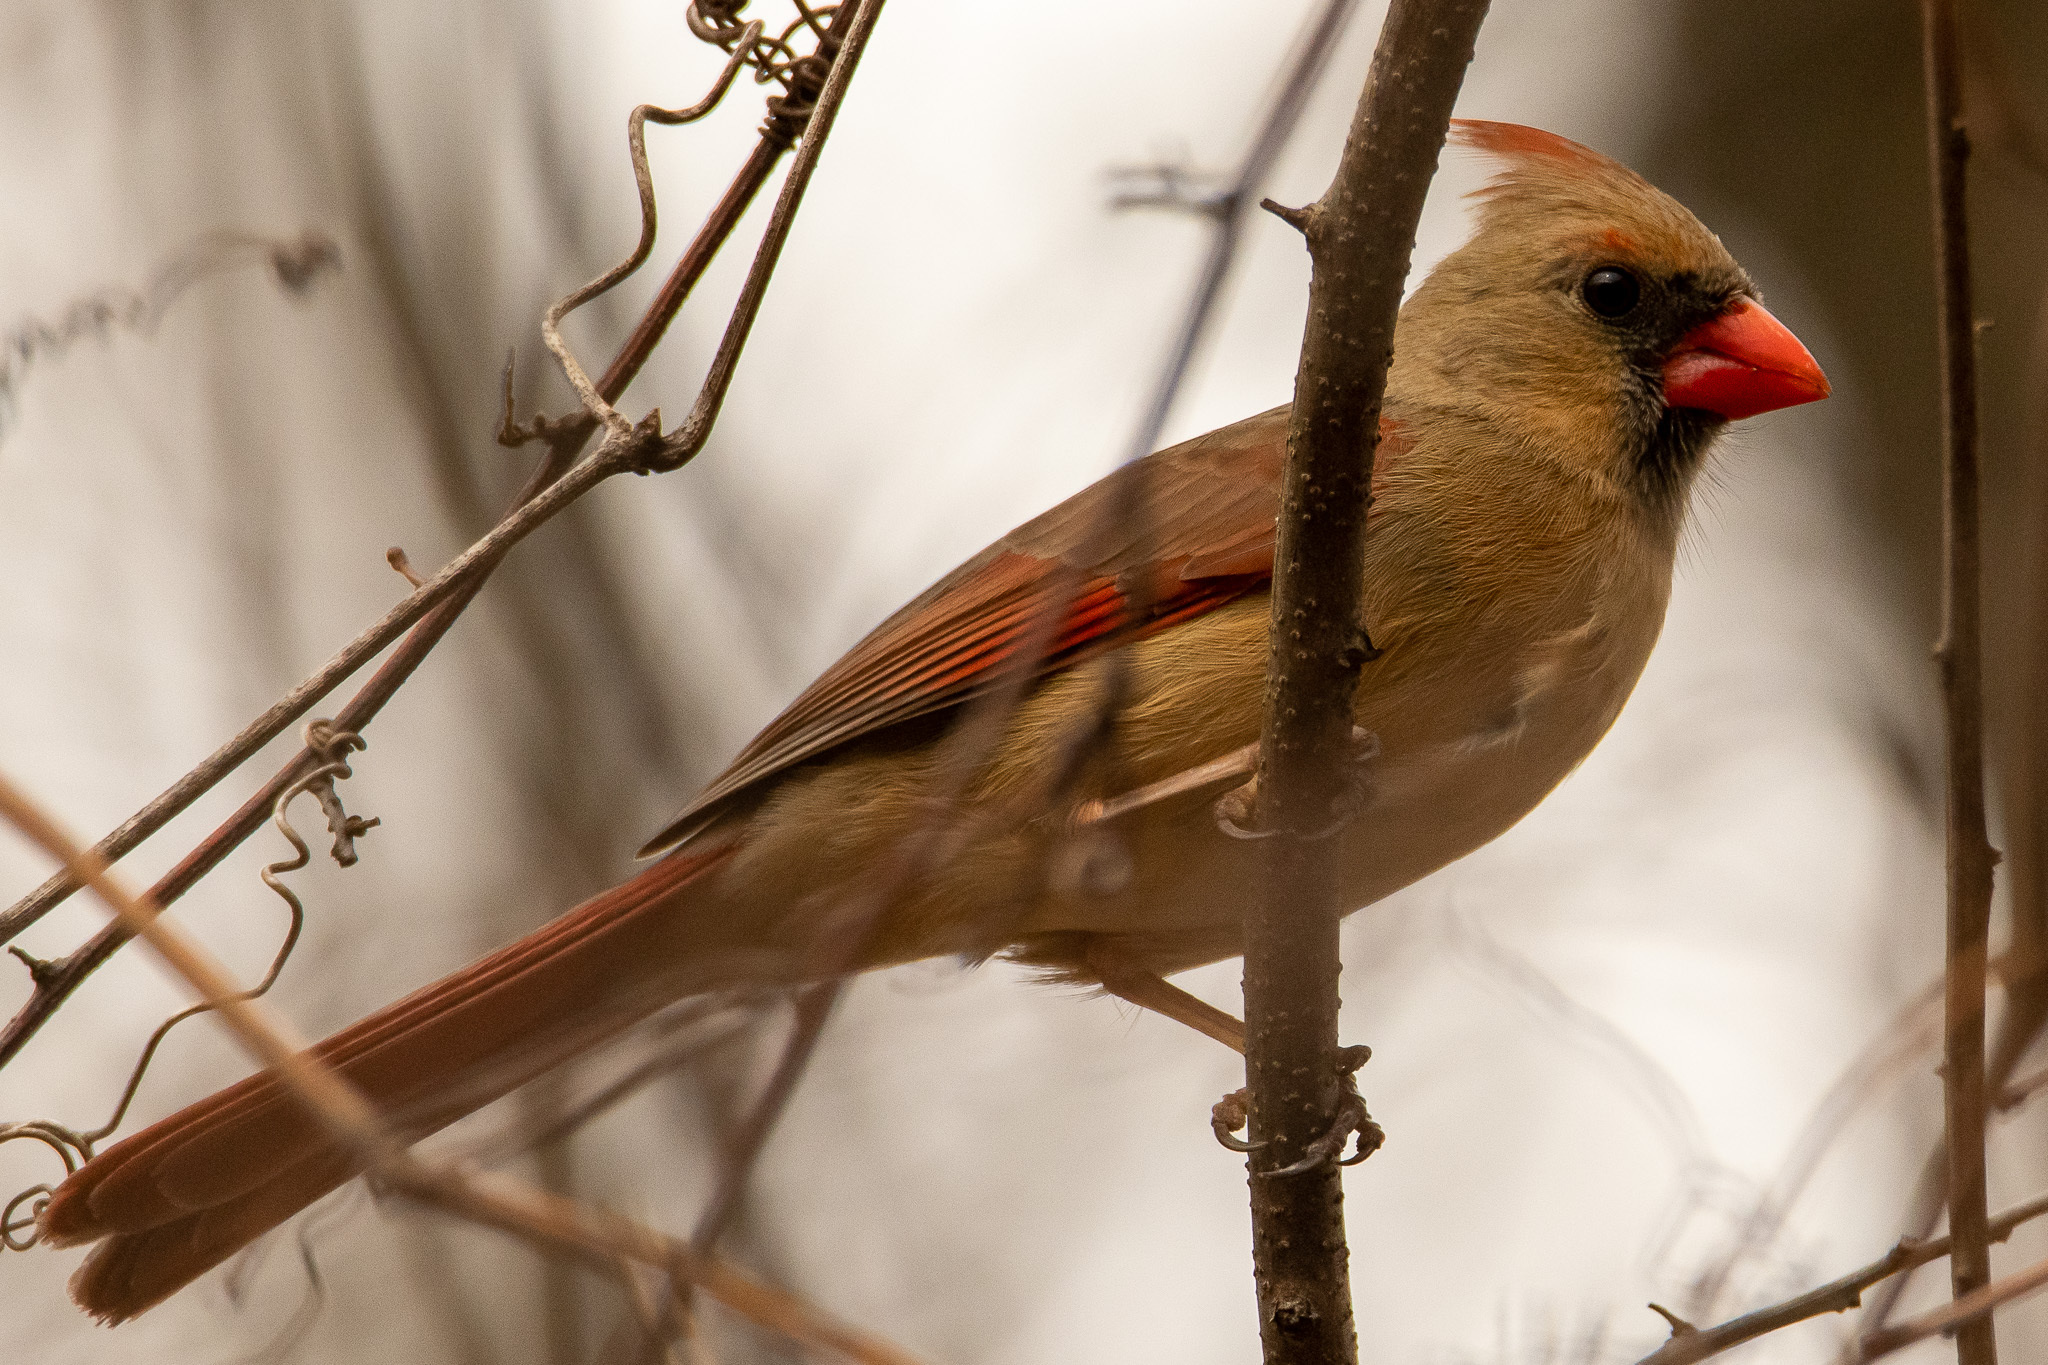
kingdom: Animalia
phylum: Chordata
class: Aves
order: Passeriformes
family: Cardinalidae
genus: Cardinalis
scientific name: Cardinalis cardinalis
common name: Northern cardinal
